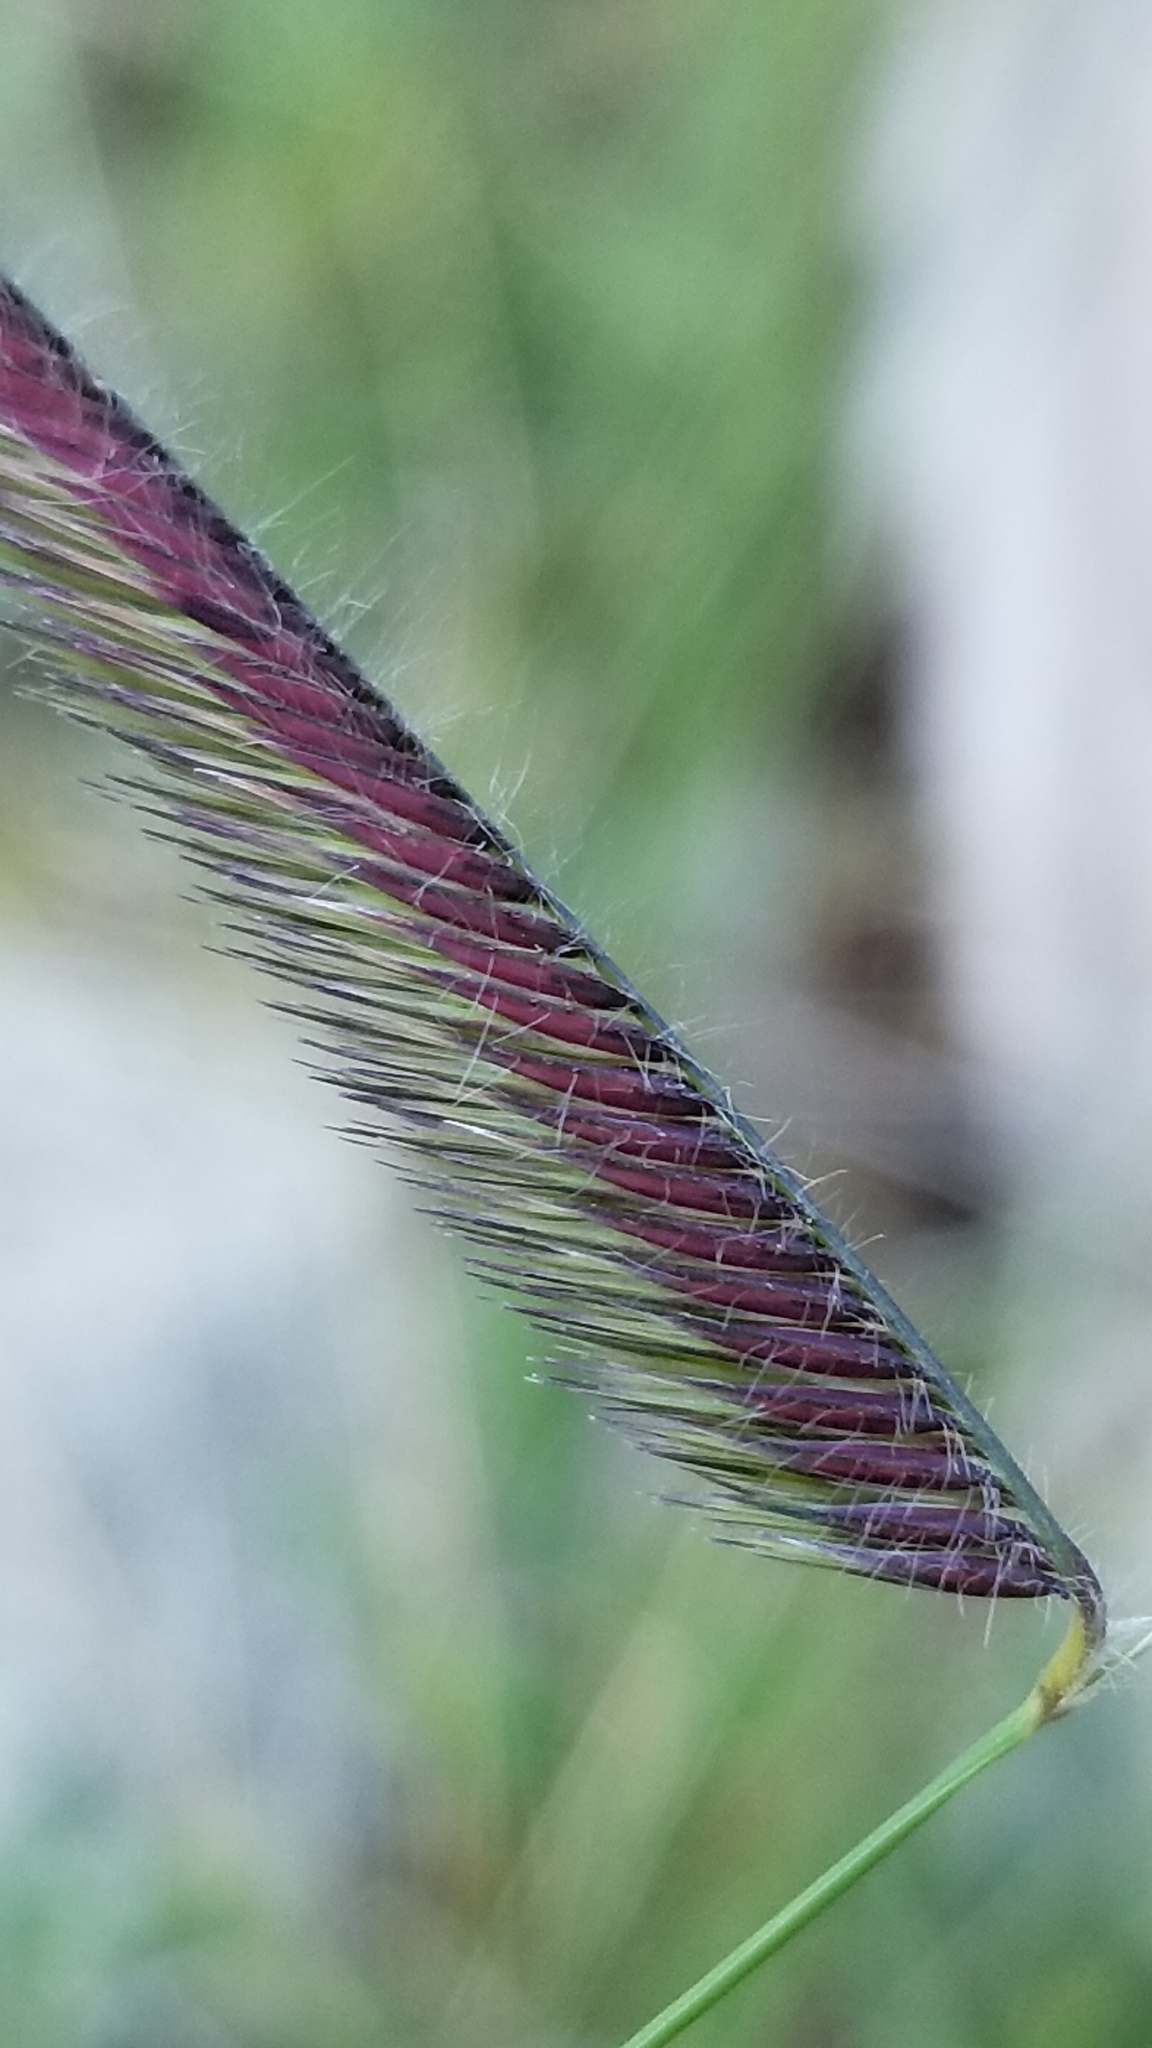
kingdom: Plantae
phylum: Tracheophyta
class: Liliopsida
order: Poales
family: Poaceae
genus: Bouteloua
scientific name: Bouteloua gracilis
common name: Blue grama
